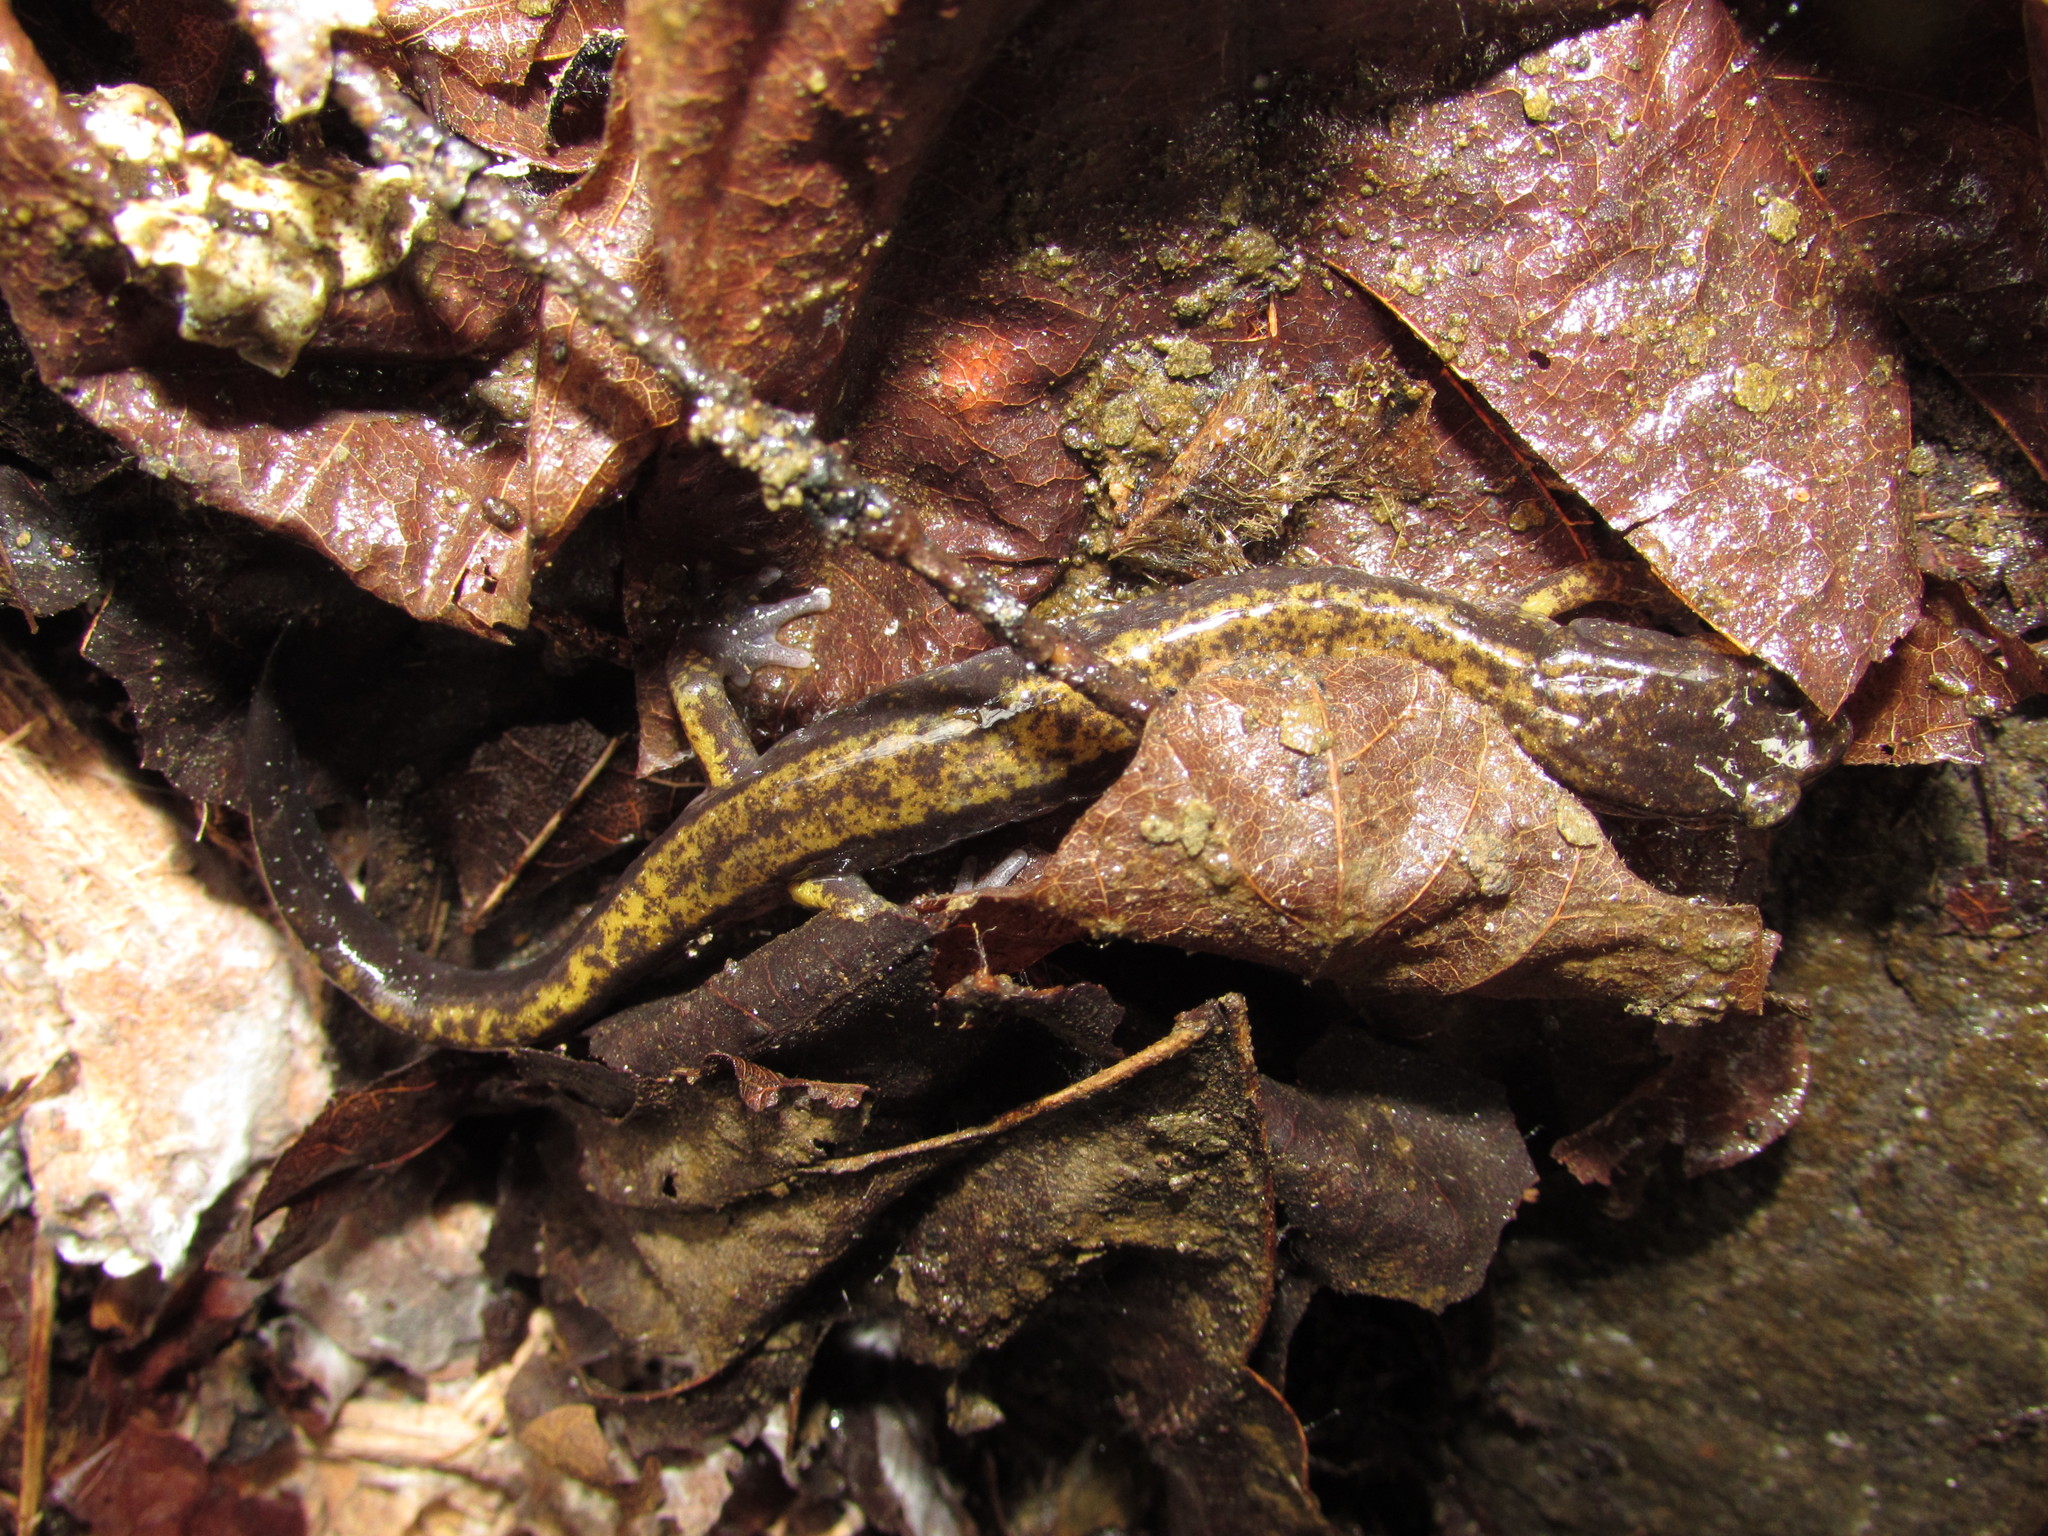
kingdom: Animalia
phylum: Chordata
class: Amphibia
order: Caudata
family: Plethodontidae
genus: Plethodon
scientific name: Plethodon dunni
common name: Dunn's salamander
